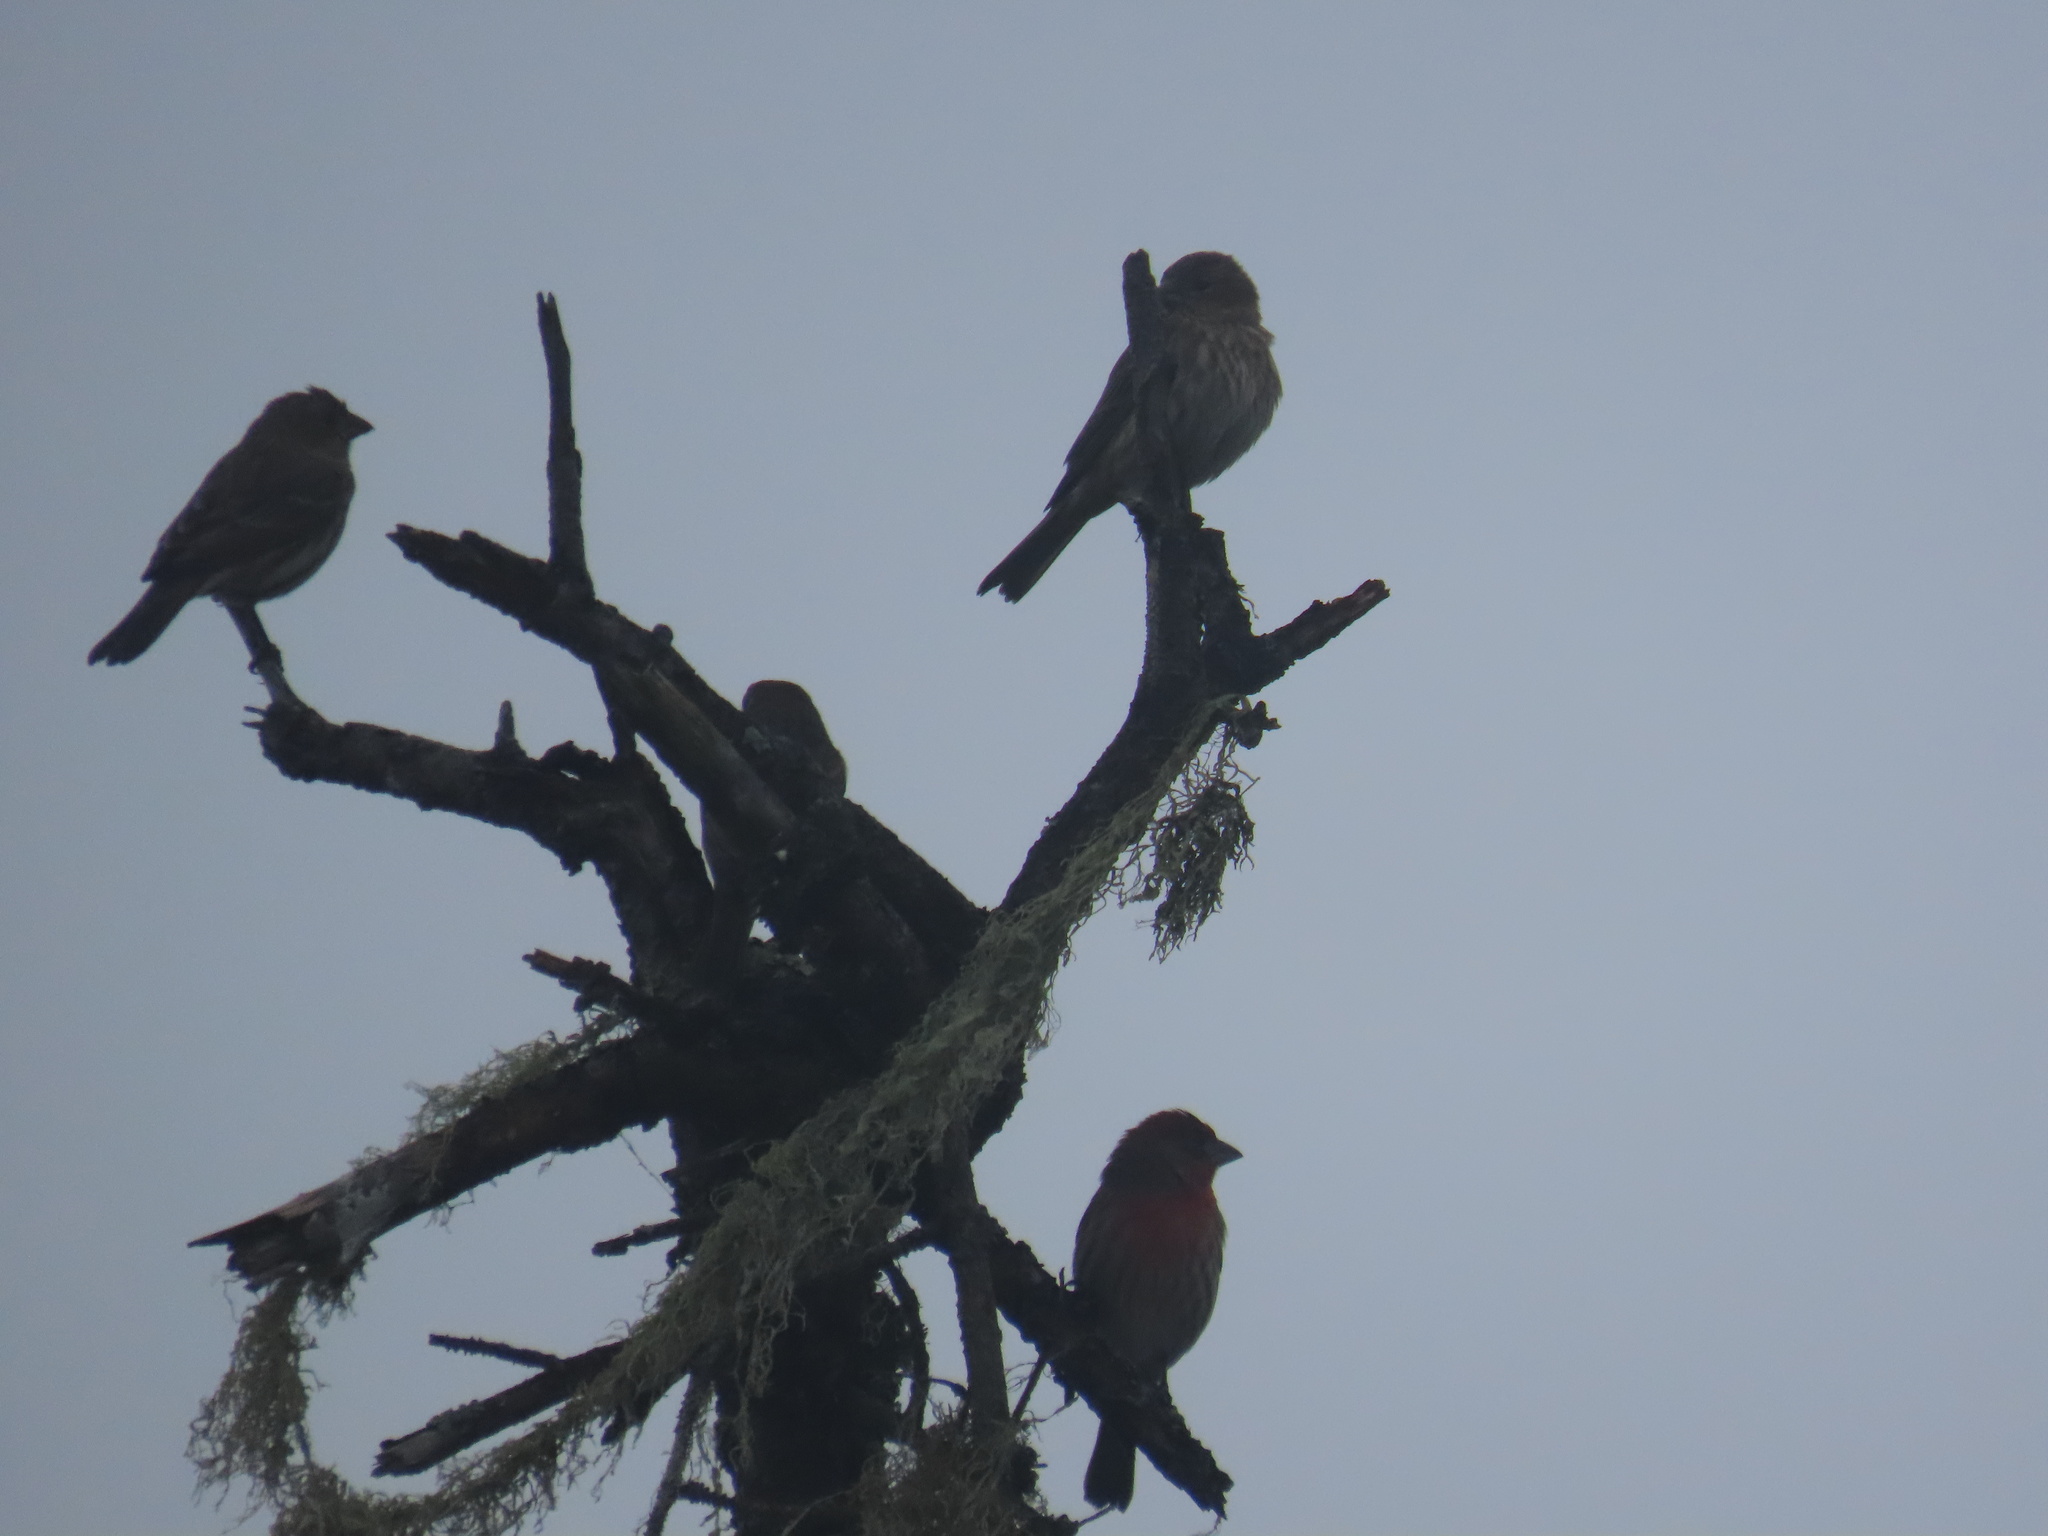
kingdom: Animalia
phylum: Chordata
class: Aves
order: Passeriformes
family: Fringillidae
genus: Haemorhous
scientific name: Haemorhous mexicanus
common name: House finch
